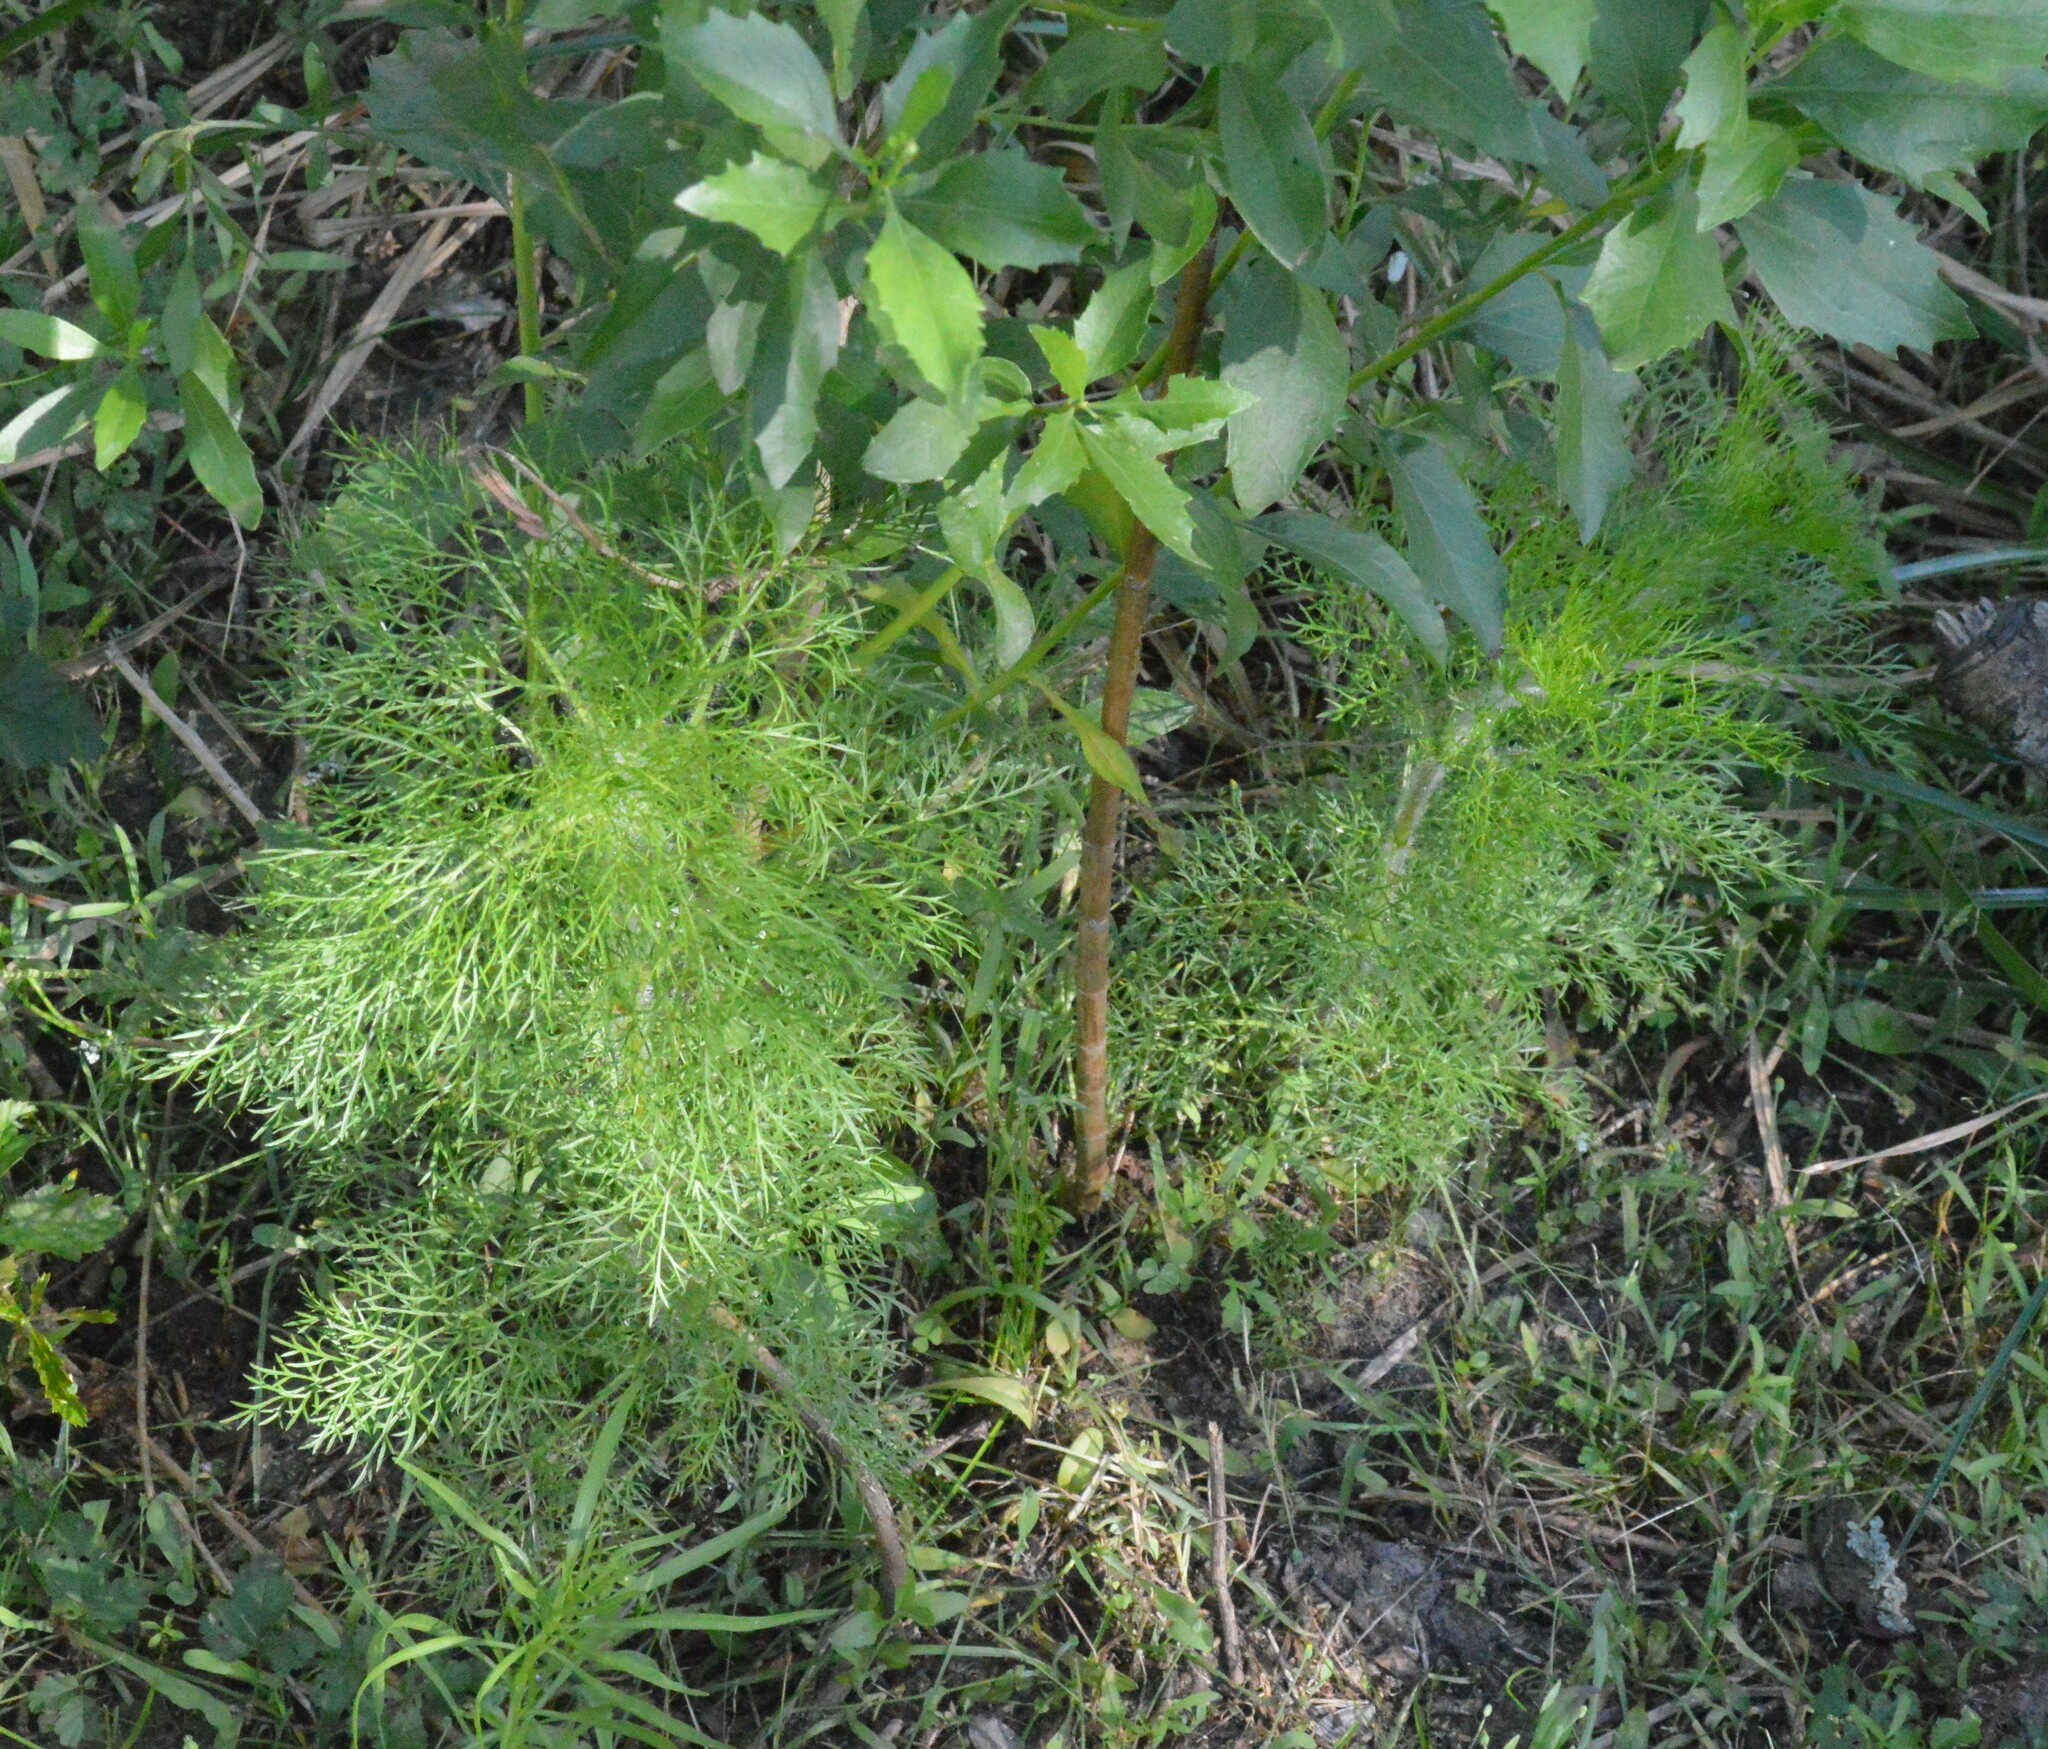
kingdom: Plantae
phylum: Tracheophyta
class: Magnoliopsida
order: Asterales
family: Asteraceae
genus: Eupatorium
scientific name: Eupatorium capillifolium
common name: Dog-fennel
